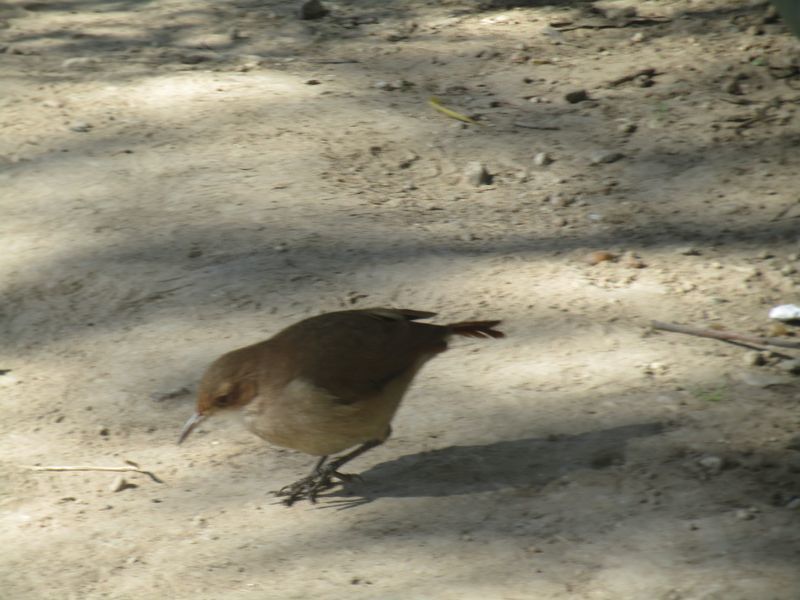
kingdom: Animalia
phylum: Chordata
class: Aves
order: Passeriformes
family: Furnariidae
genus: Furnarius
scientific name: Furnarius rufus
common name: Rufous hornero
